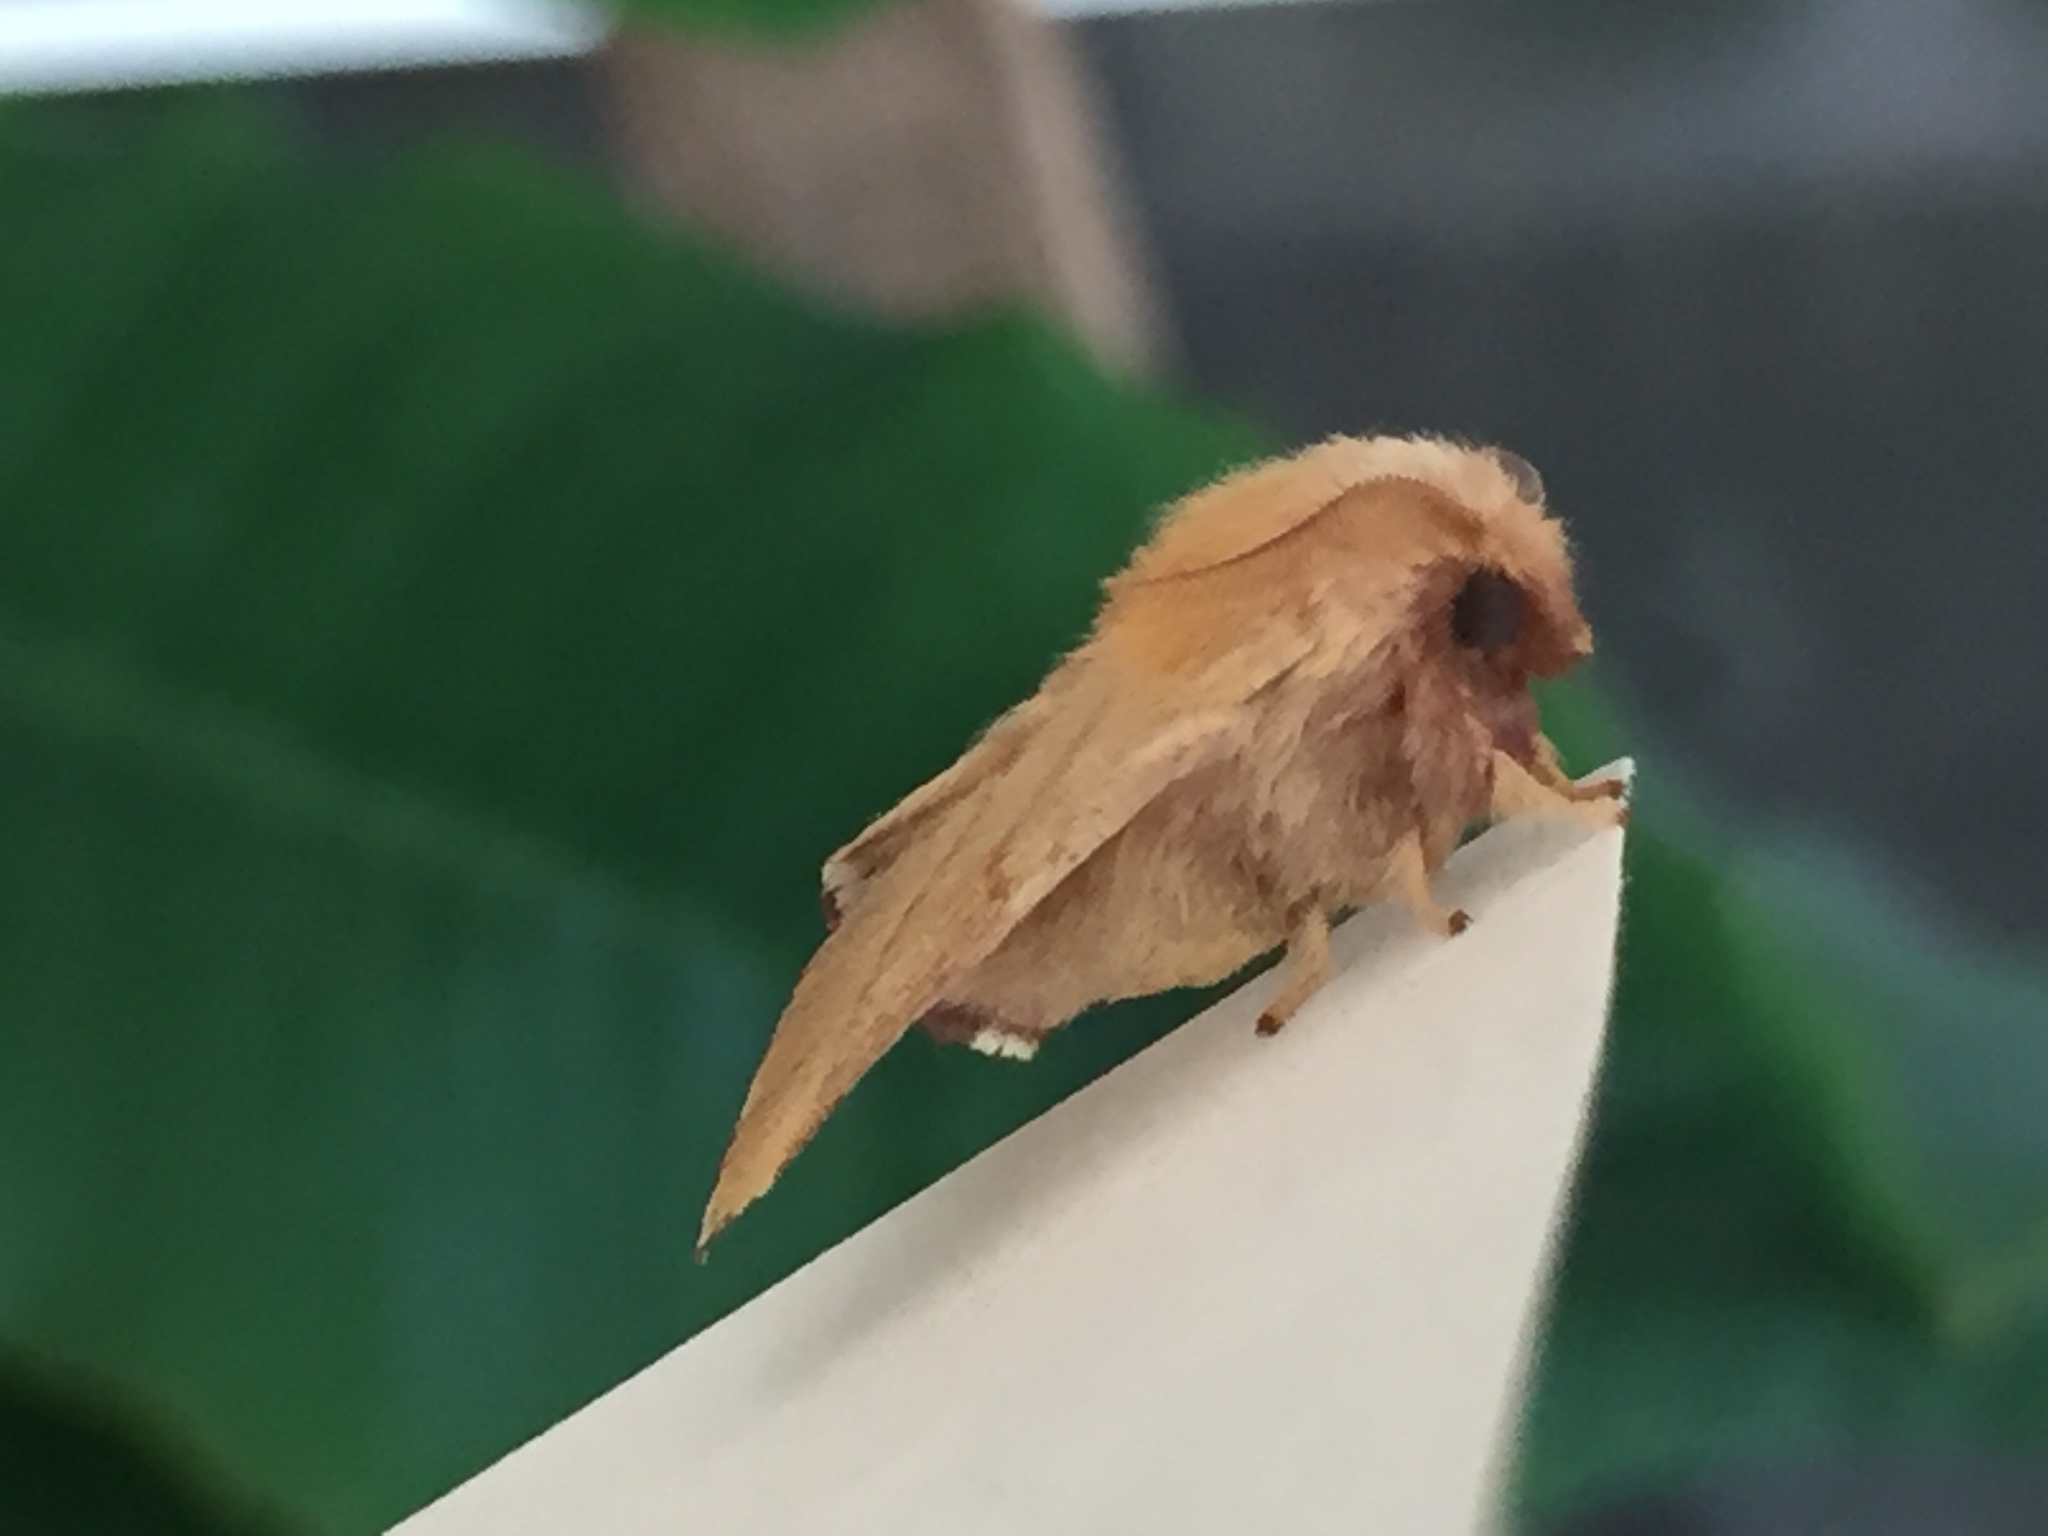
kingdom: Animalia
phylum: Arthropoda
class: Insecta
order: Lepidoptera
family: Lasiocampidae
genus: Malacosoma
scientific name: Malacosoma disstria
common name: Forest tent caterpillar
